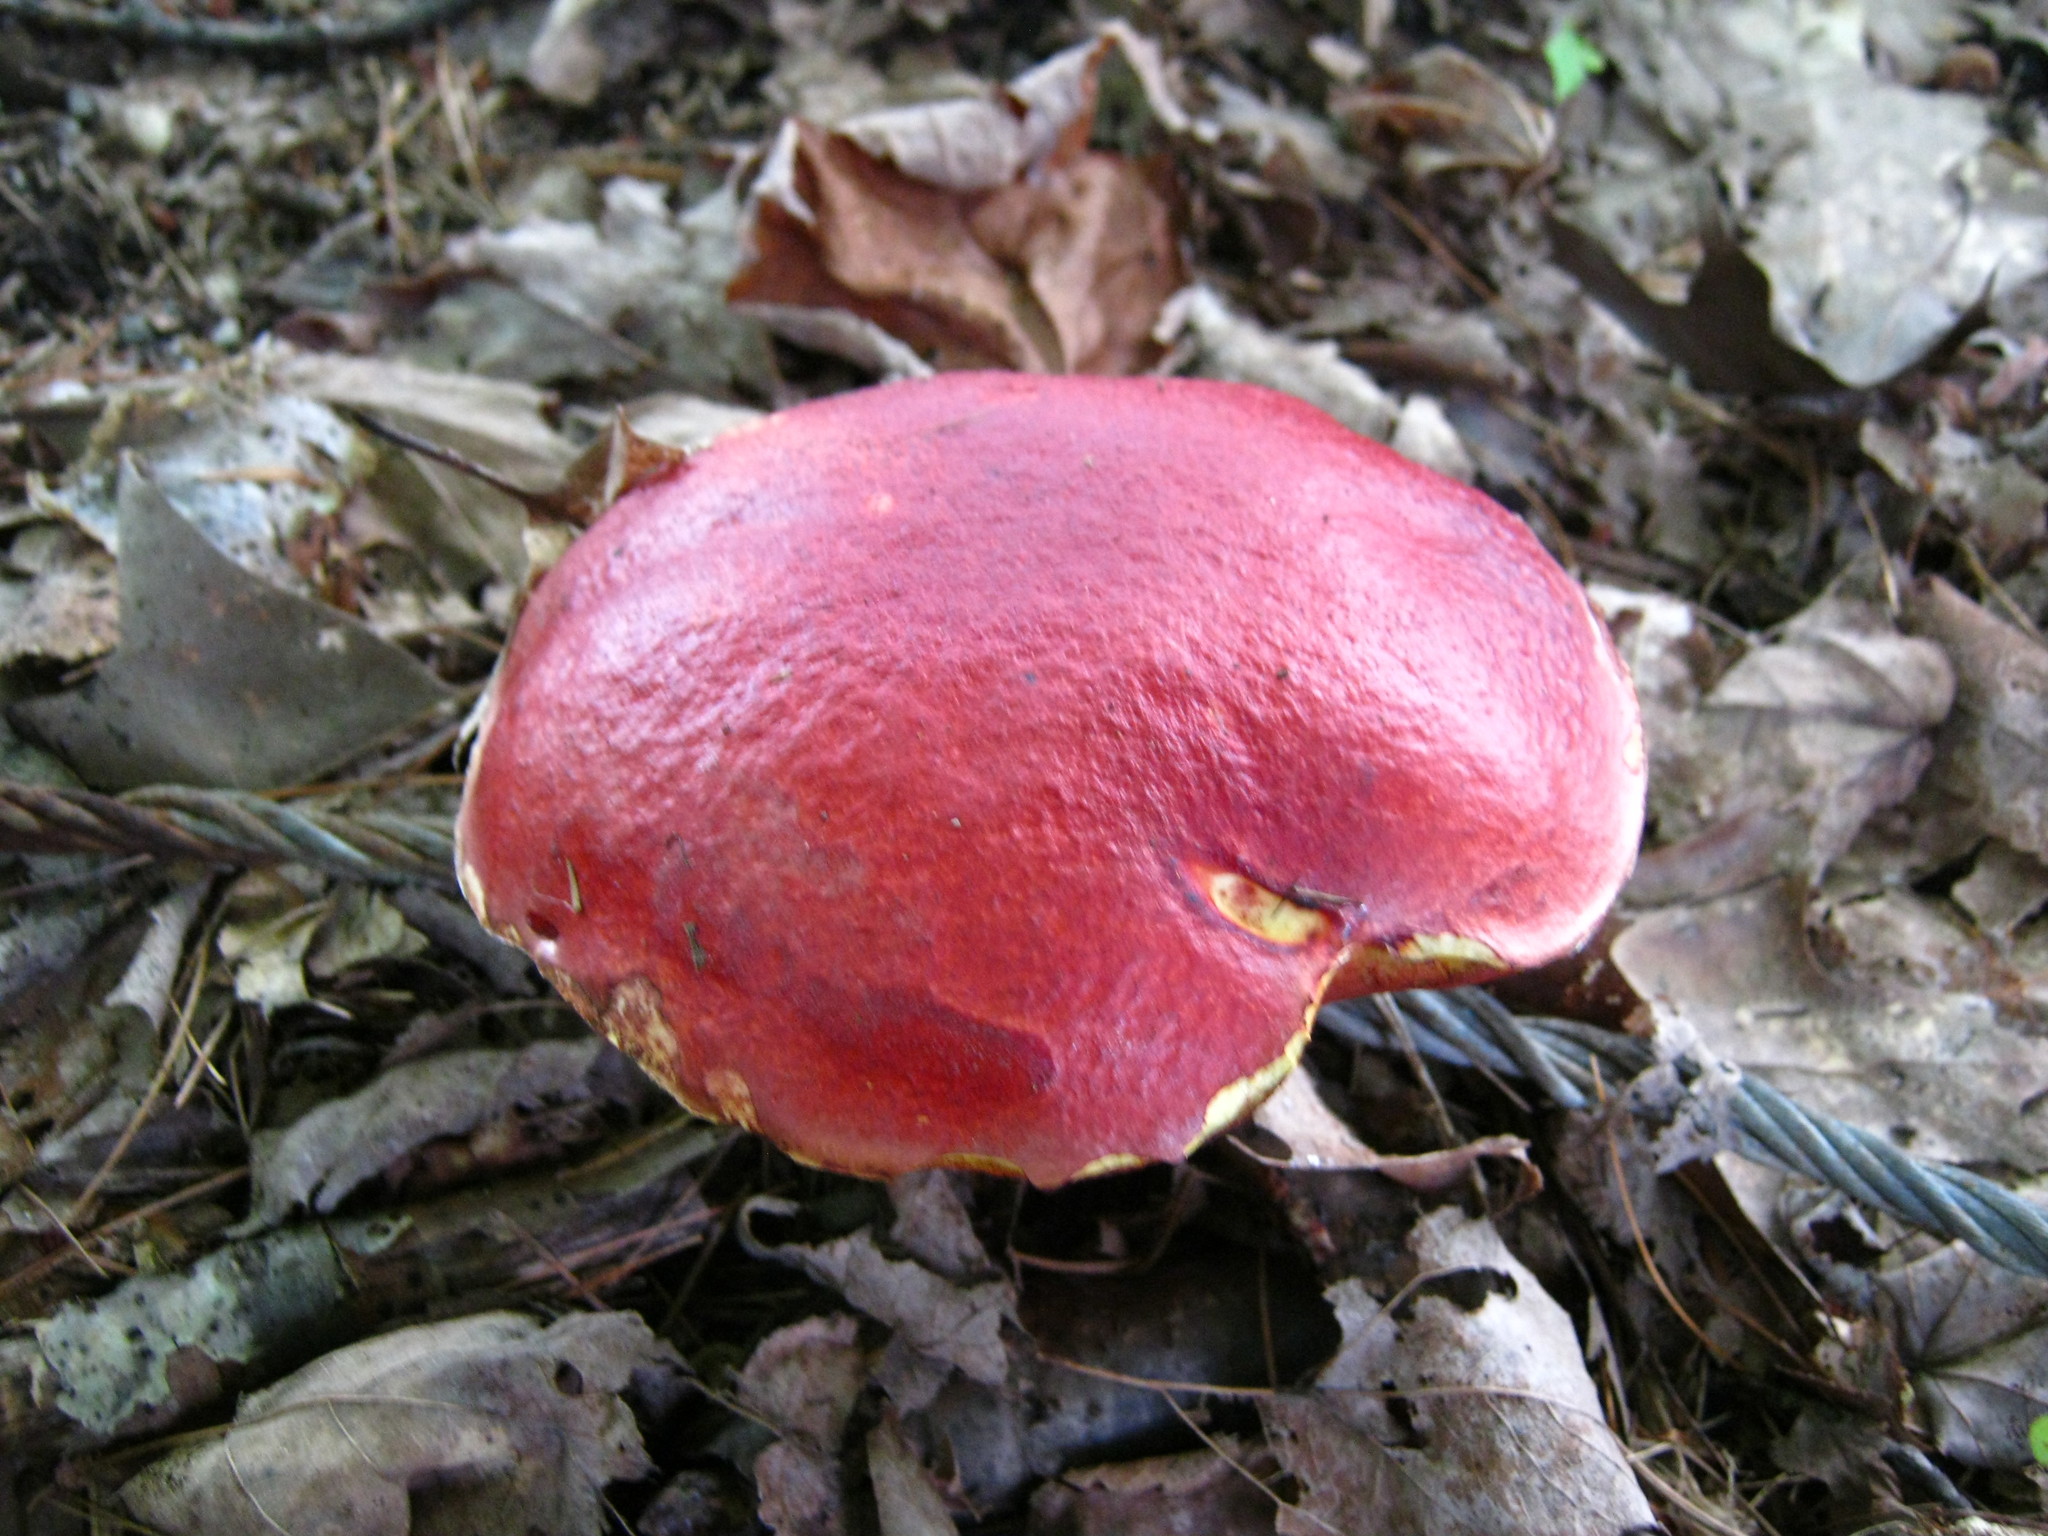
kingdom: Fungi
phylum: Basidiomycota
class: Agaricomycetes
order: Boletales
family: Boletaceae
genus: Butyriboletus
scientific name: Butyriboletus frostii
